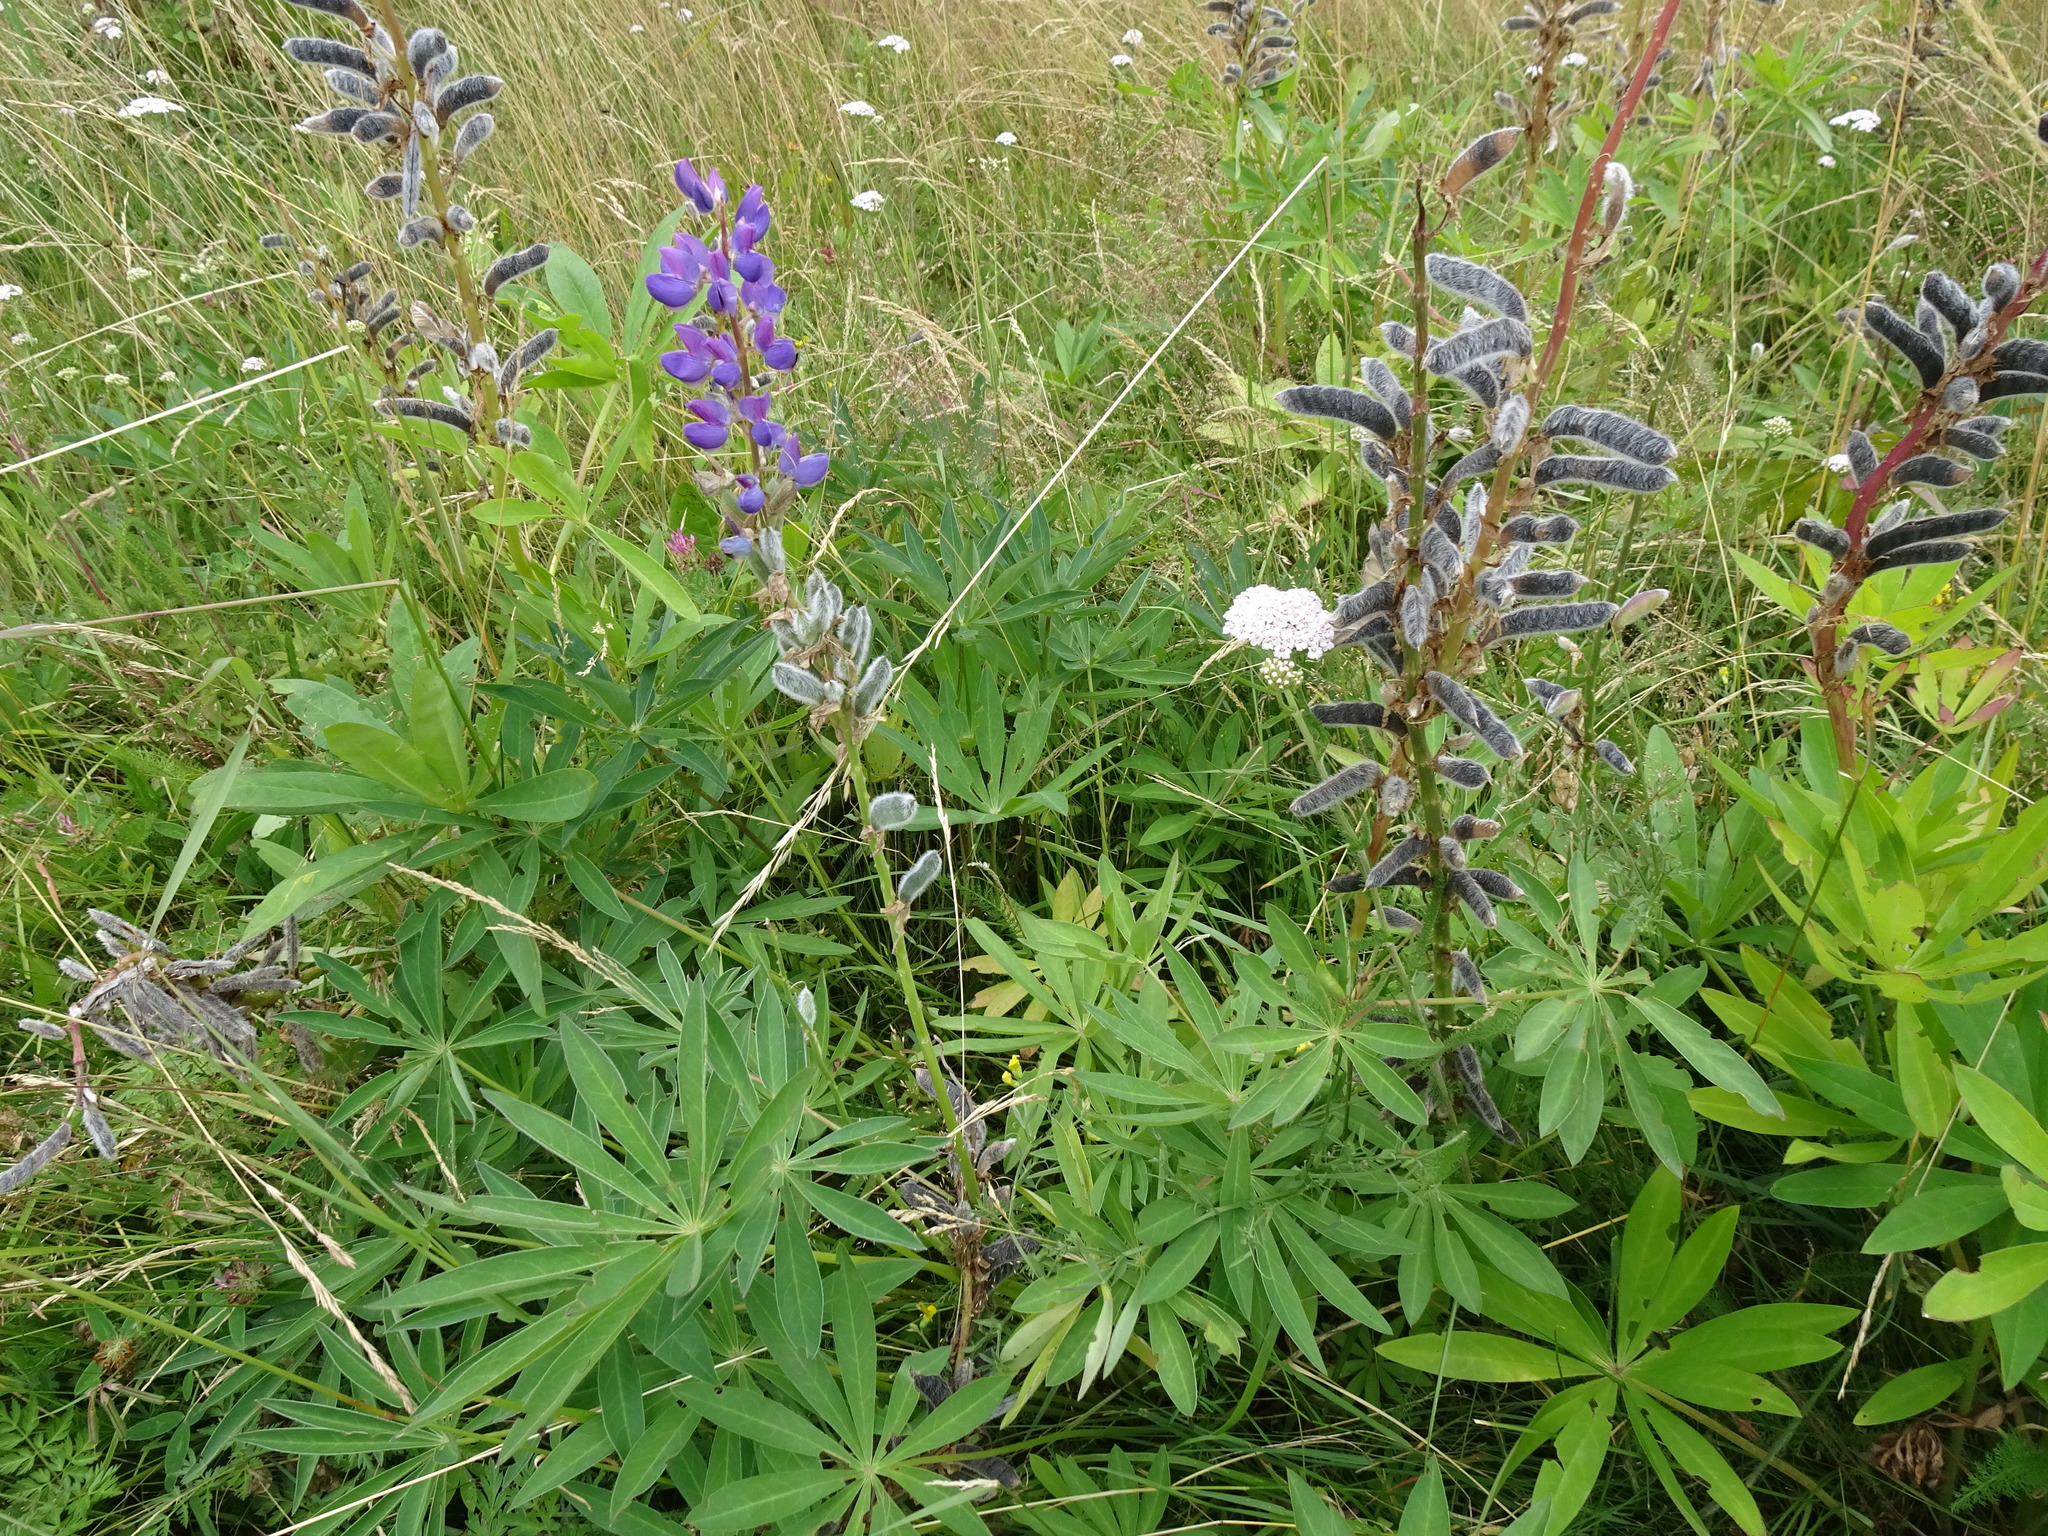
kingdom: Plantae
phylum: Tracheophyta
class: Magnoliopsida
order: Fabales
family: Fabaceae
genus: Lupinus
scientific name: Lupinus polyphyllus
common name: Garden lupin
